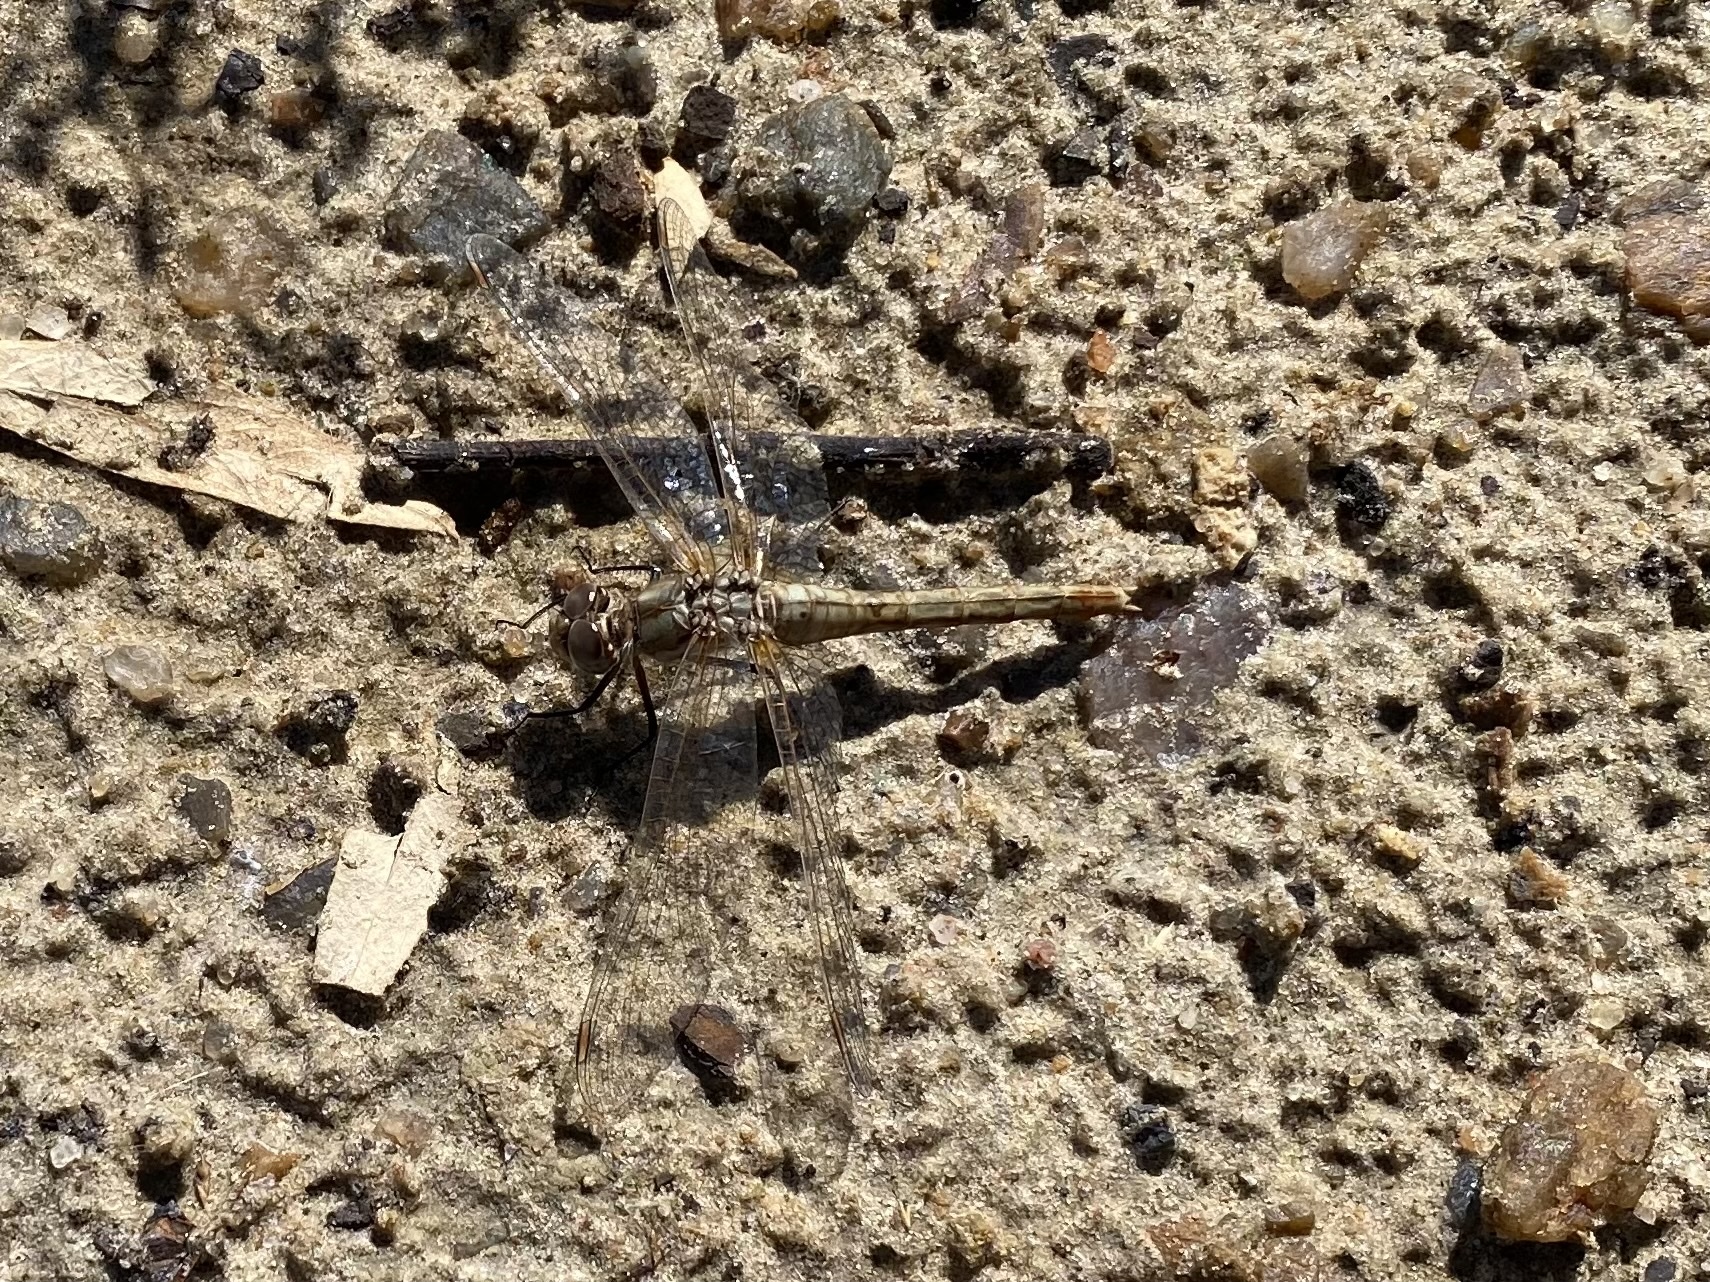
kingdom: Animalia
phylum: Arthropoda
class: Insecta
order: Odonata
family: Libellulidae
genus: Sympetrum
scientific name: Sympetrum corruptum
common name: Variegated meadowhawk
